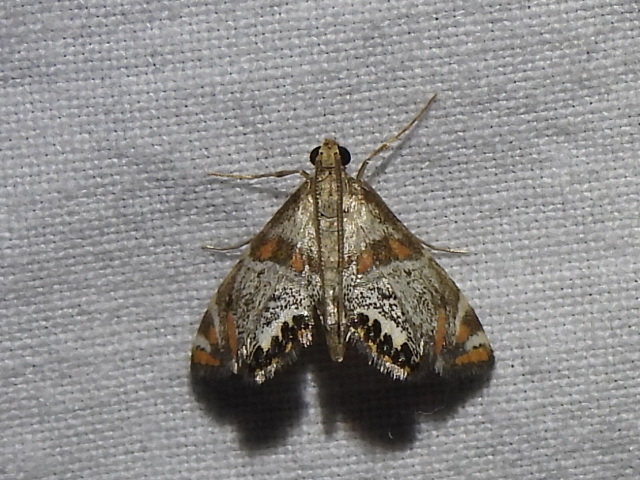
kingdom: Animalia
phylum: Arthropoda
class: Insecta
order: Lepidoptera
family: Crambidae
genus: Petrophila
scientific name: Petrophila jaliscalis
